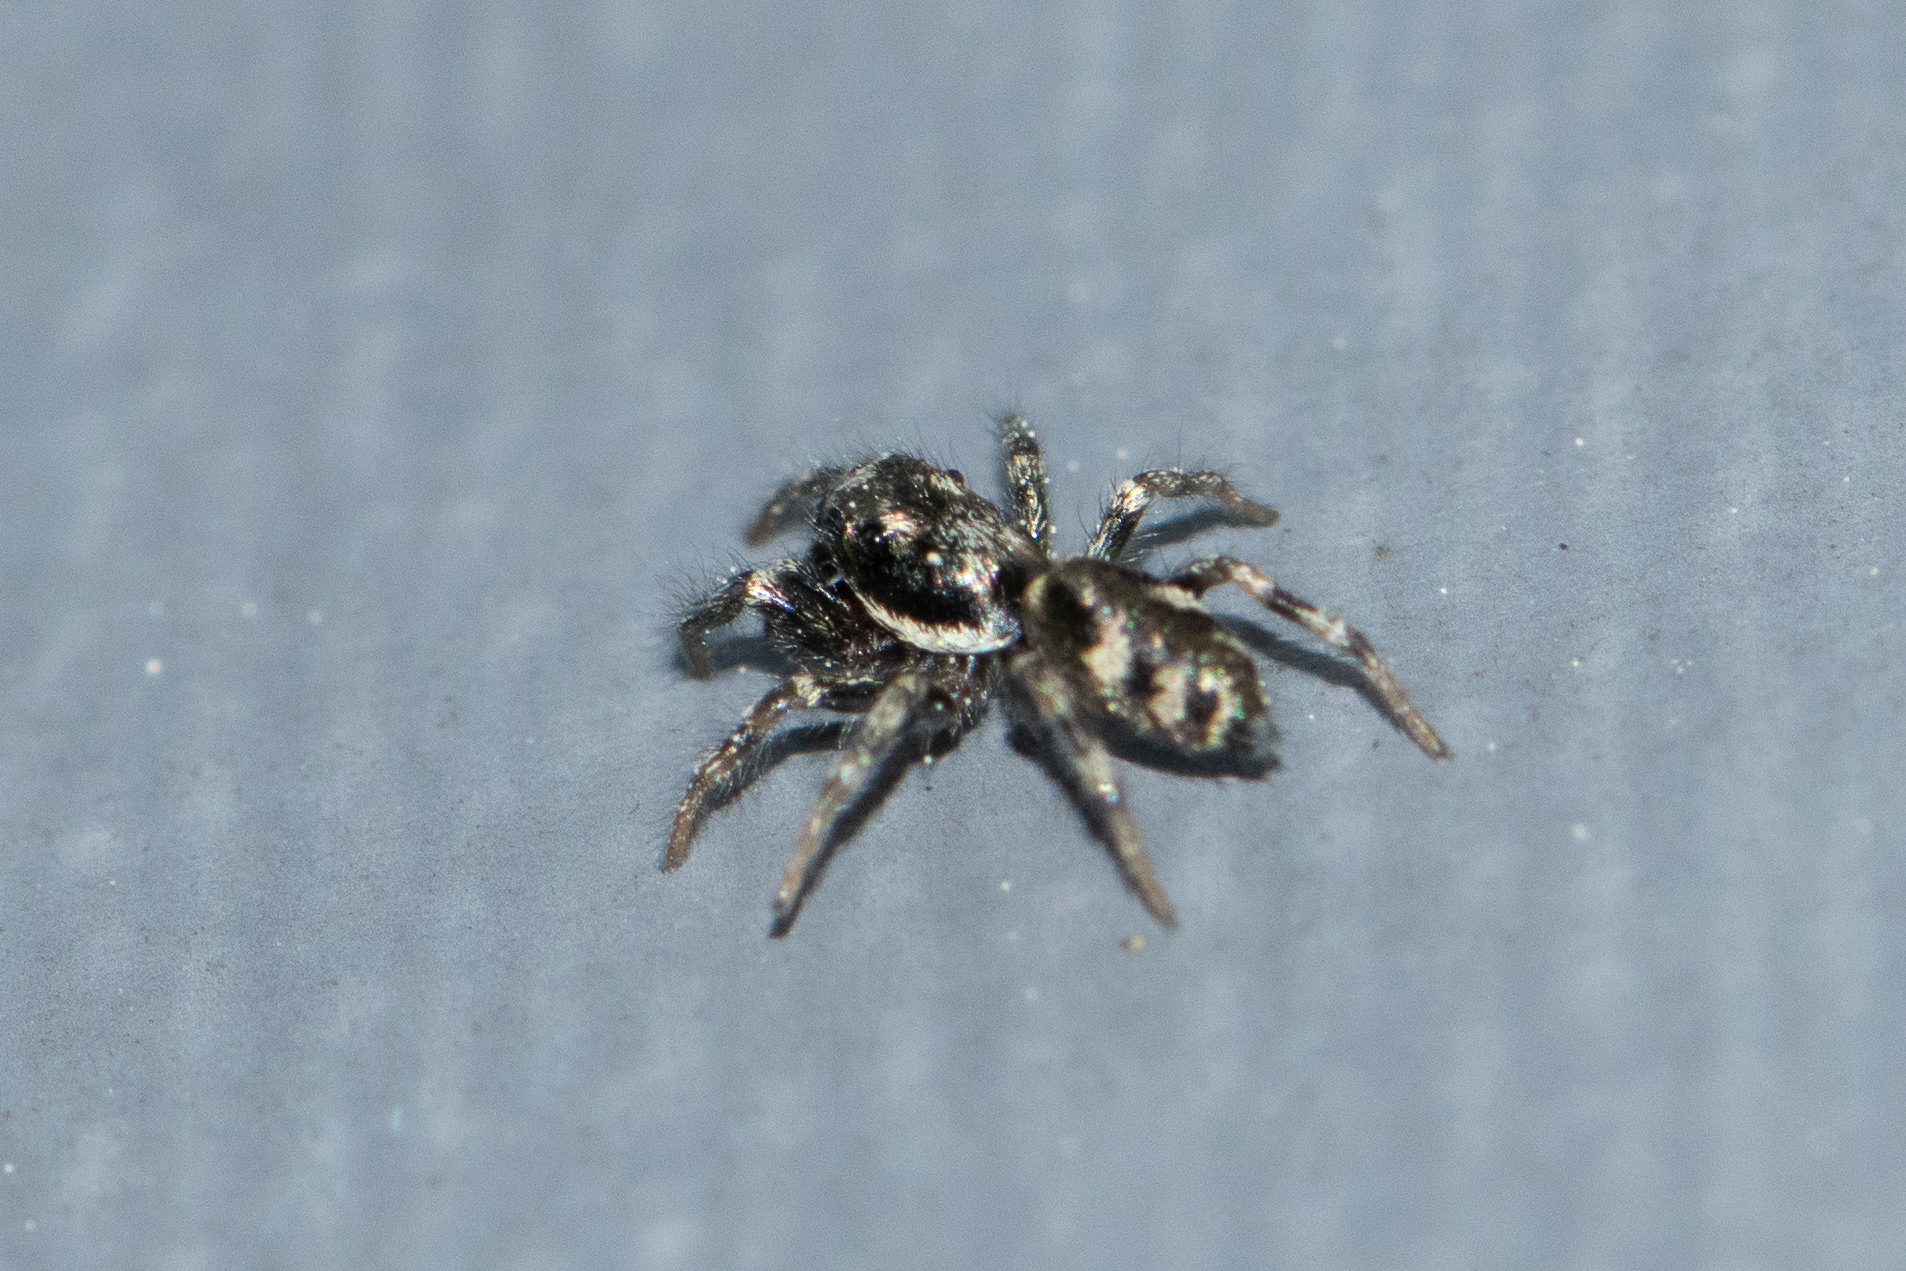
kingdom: Animalia
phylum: Arthropoda
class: Arachnida
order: Araneae
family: Salticidae
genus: Salticus
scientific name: Salticus cingulatus
